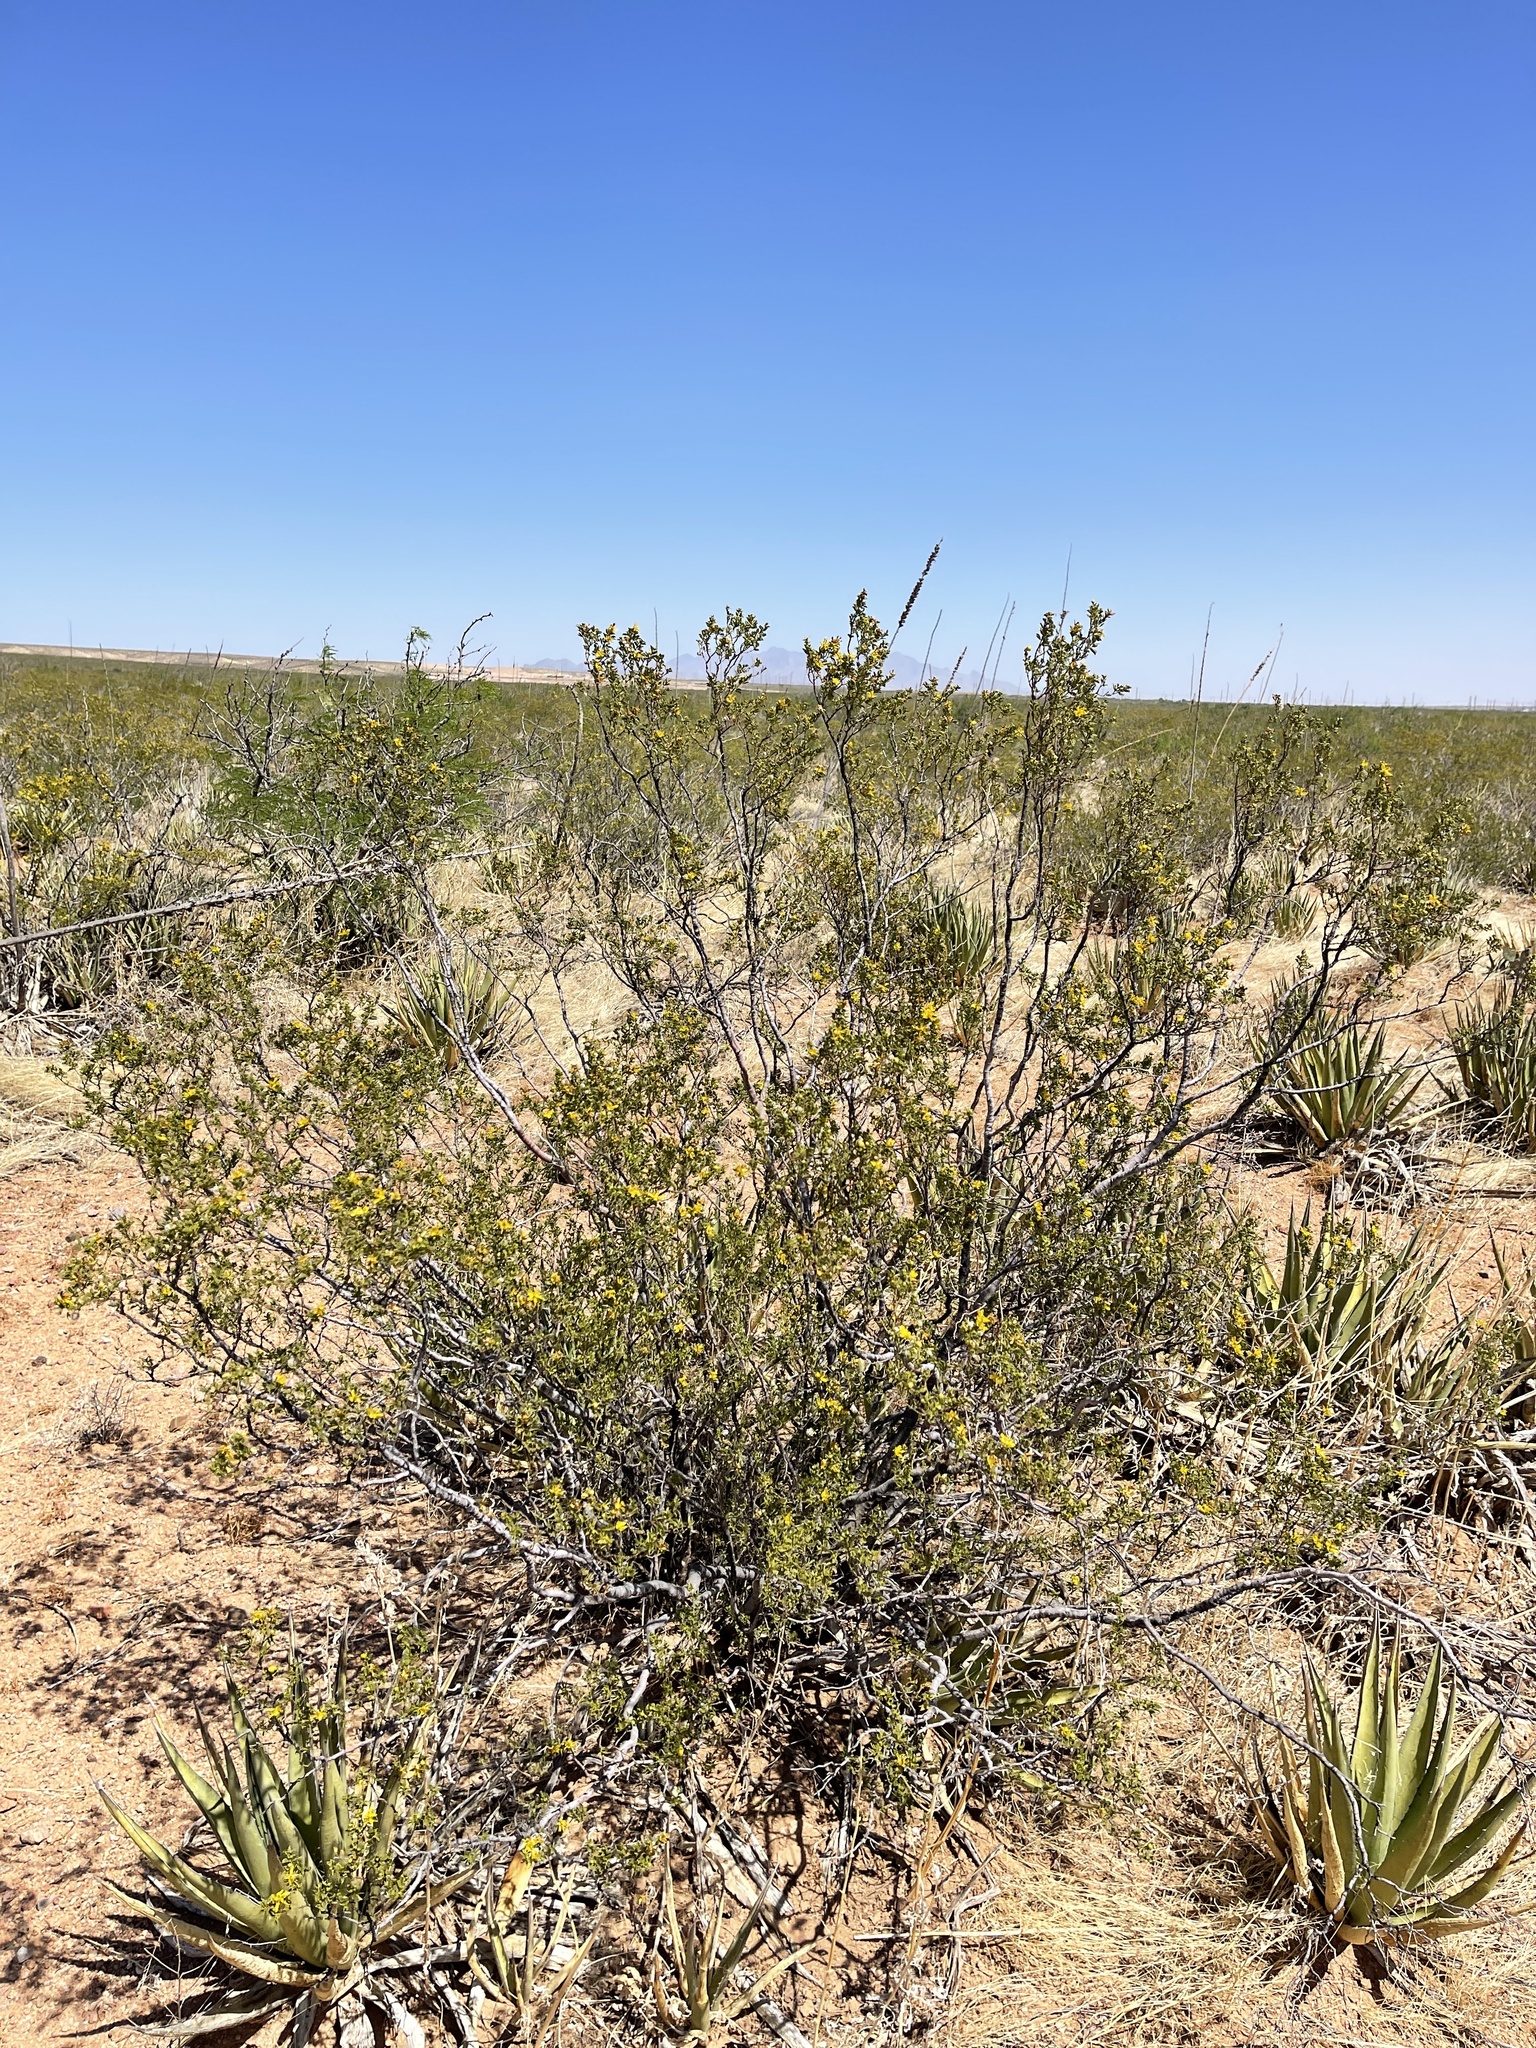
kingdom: Plantae
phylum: Tracheophyta
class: Magnoliopsida
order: Zygophyllales
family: Zygophyllaceae
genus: Larrea
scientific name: Larrea tridentata
